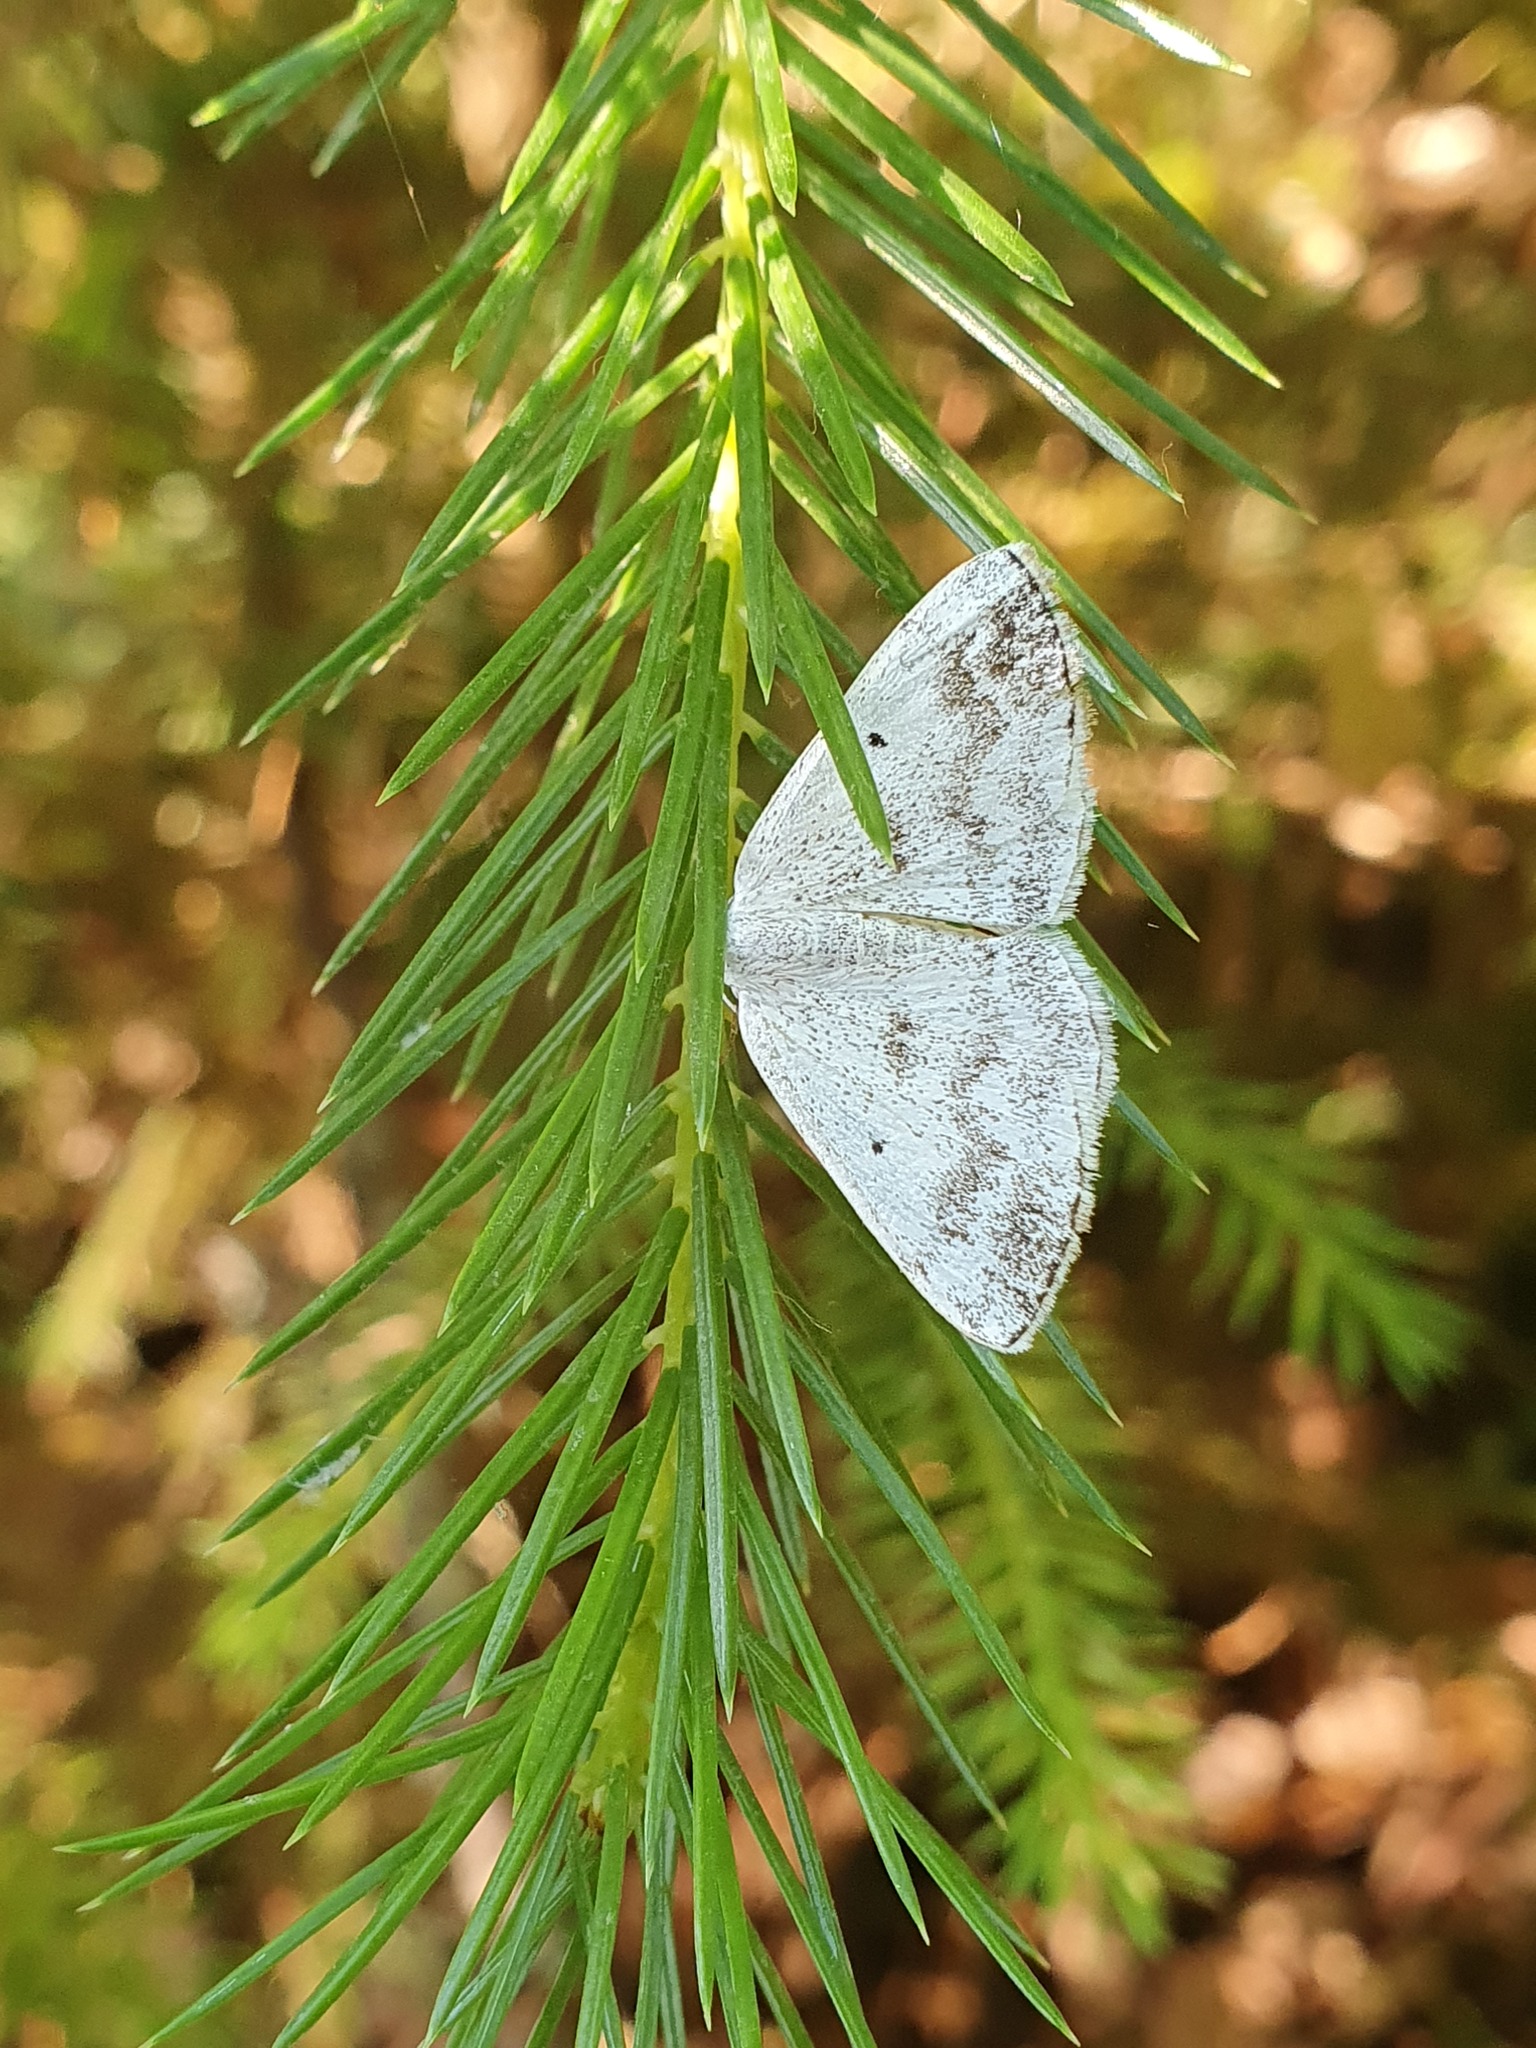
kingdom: Animalia
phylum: Arthropoda
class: Insecta
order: Lepidoptera
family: Geometridae
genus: Lomographa
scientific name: Lomographa temerata
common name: Clouded silver
